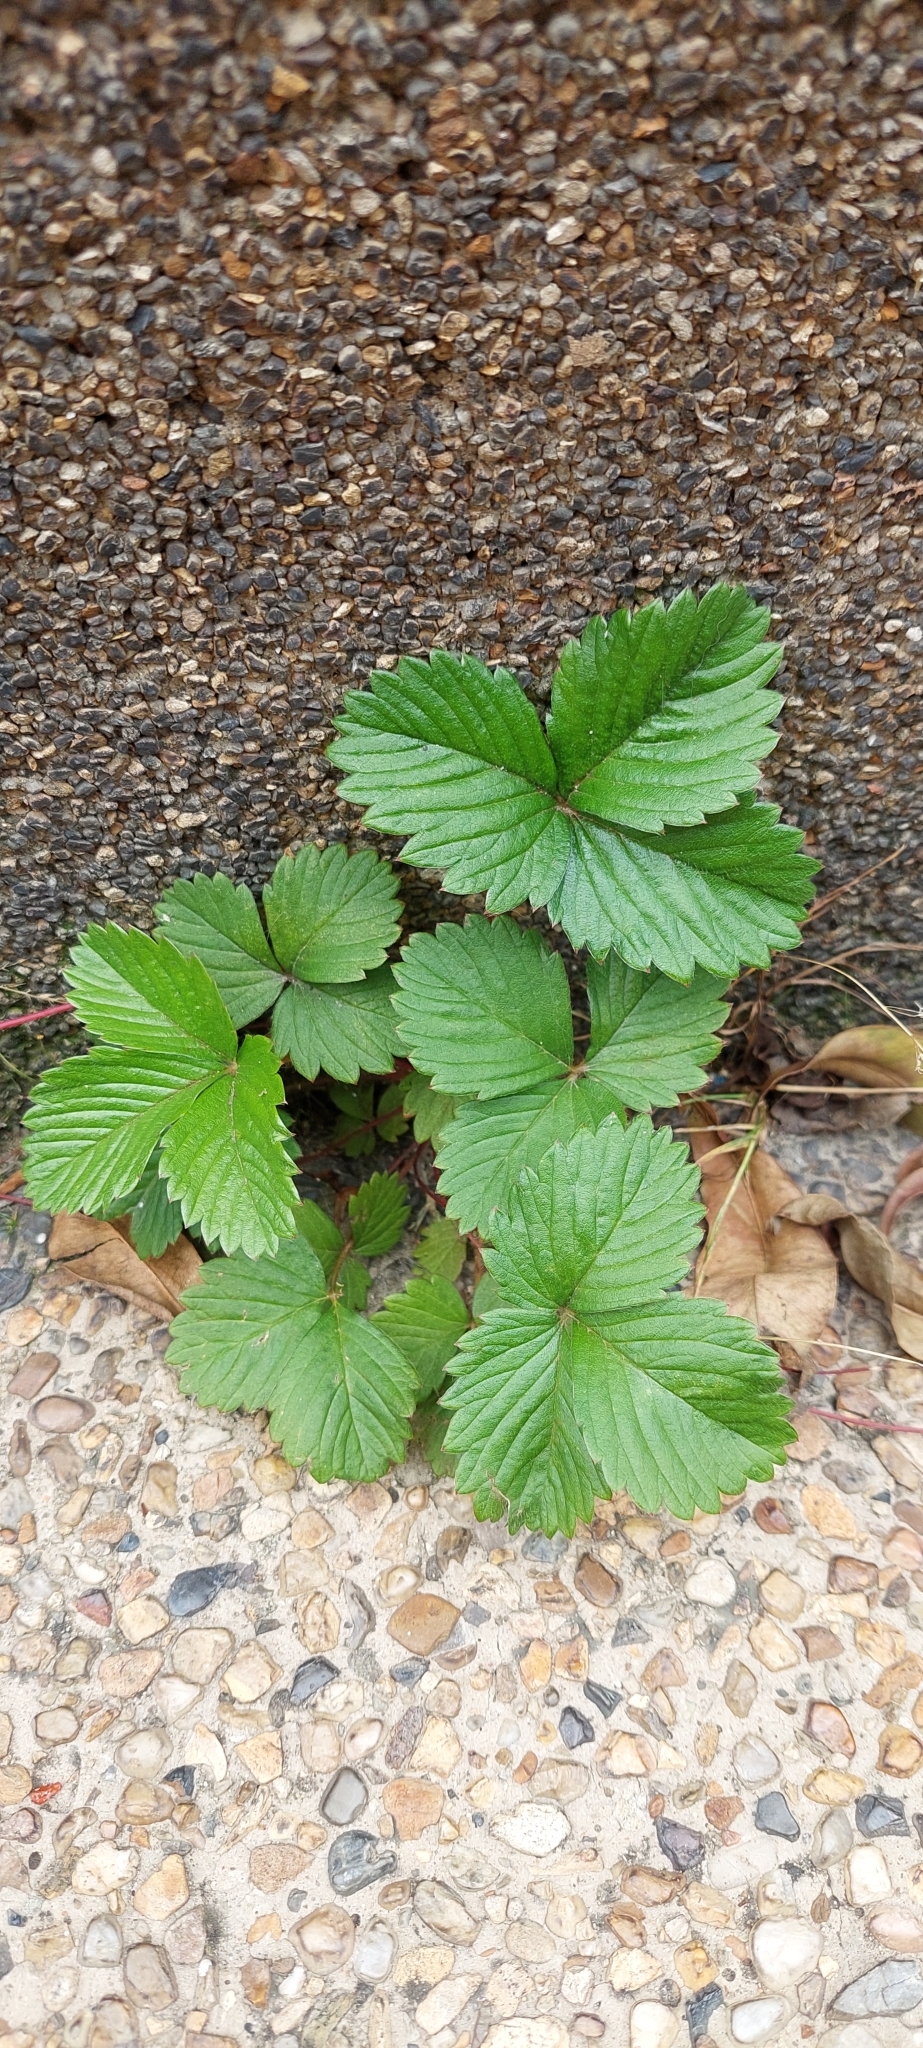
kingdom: Plantae
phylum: Tracheophyta
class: Magnoliopsida
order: Rosales
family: Rosaceae
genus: Fragaria
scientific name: Fragaria vesca
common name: Wild strawberry
